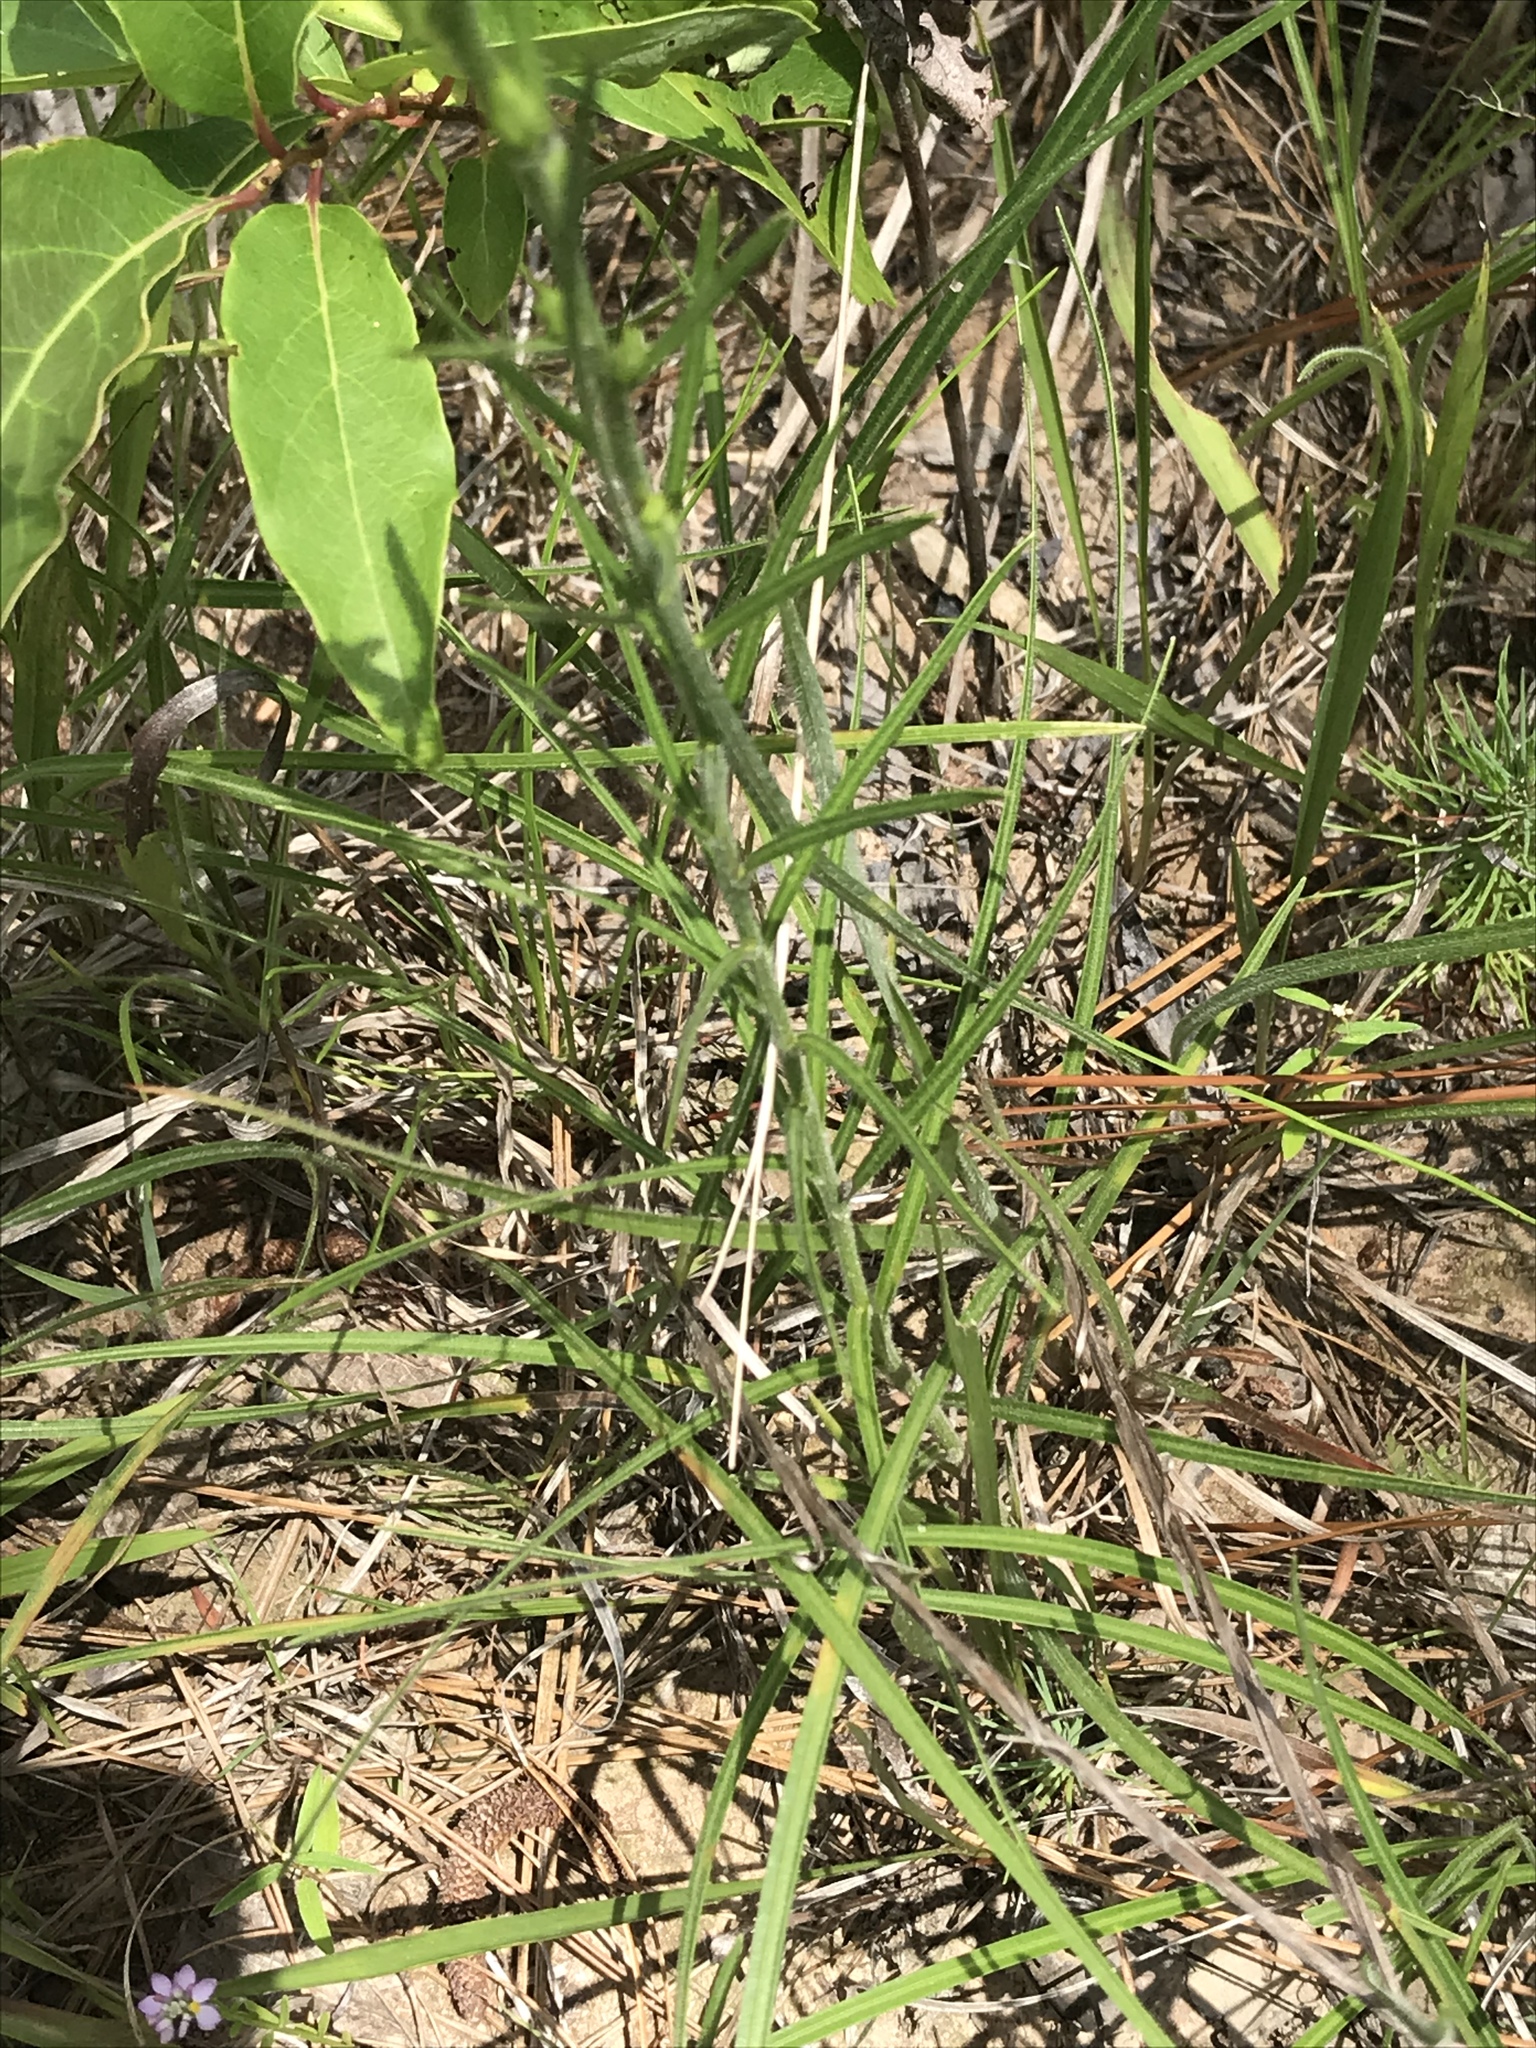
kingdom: Plantae
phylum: Tracheophyta
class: Magnoliopsida
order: Asterales
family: Asteraceae
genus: Liatris
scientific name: Liatris squarrosa
